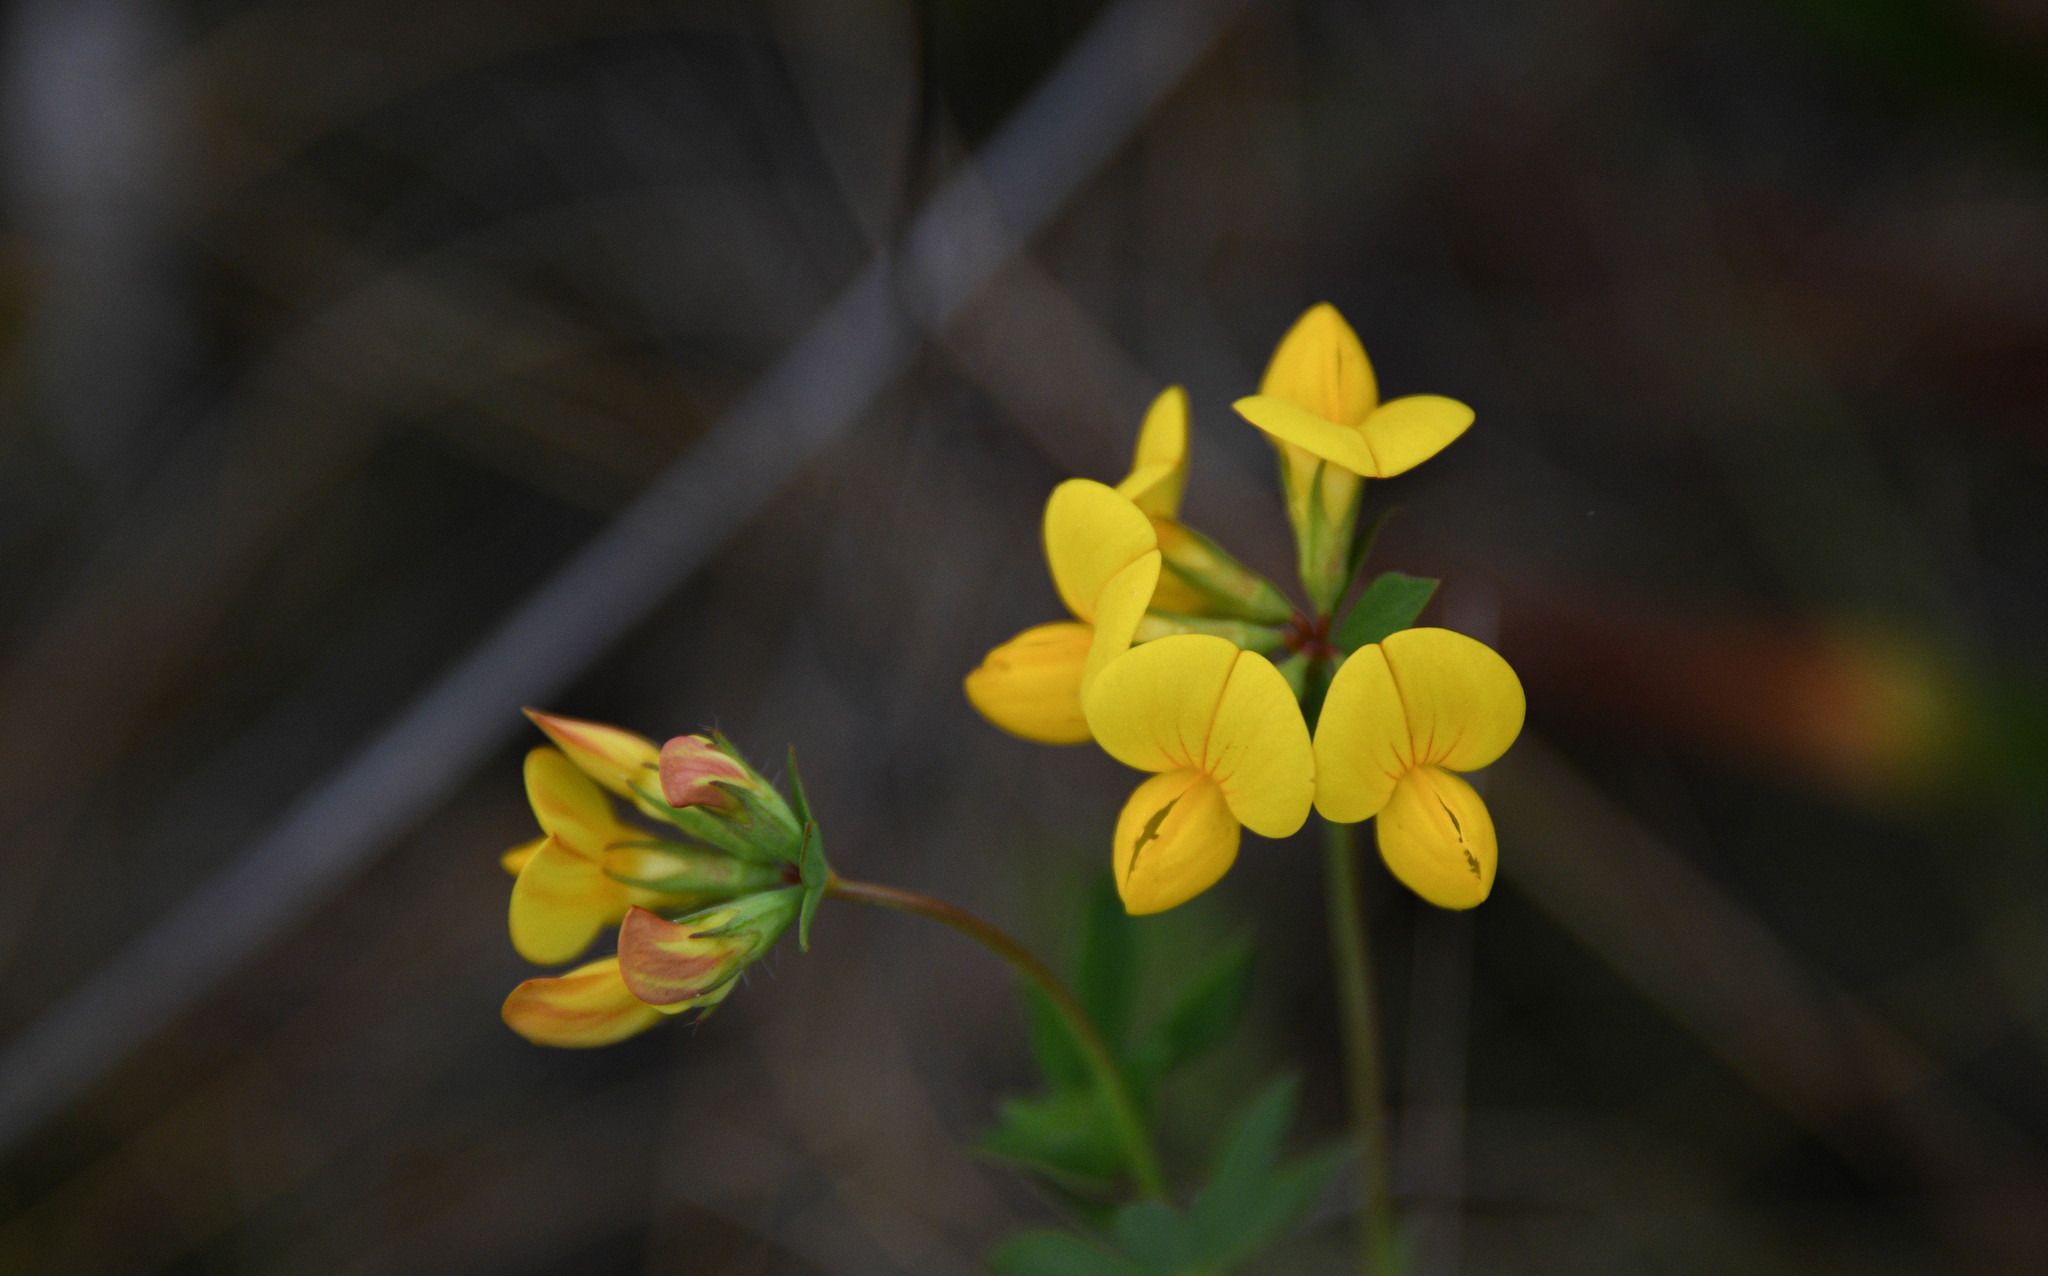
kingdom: Plantae
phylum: Tracheophyta
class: Magnoliopsida
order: Fabales
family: Fabaceae
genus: Lotus
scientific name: Lotus corniculatus
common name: Common bird's-foot-trefoil
